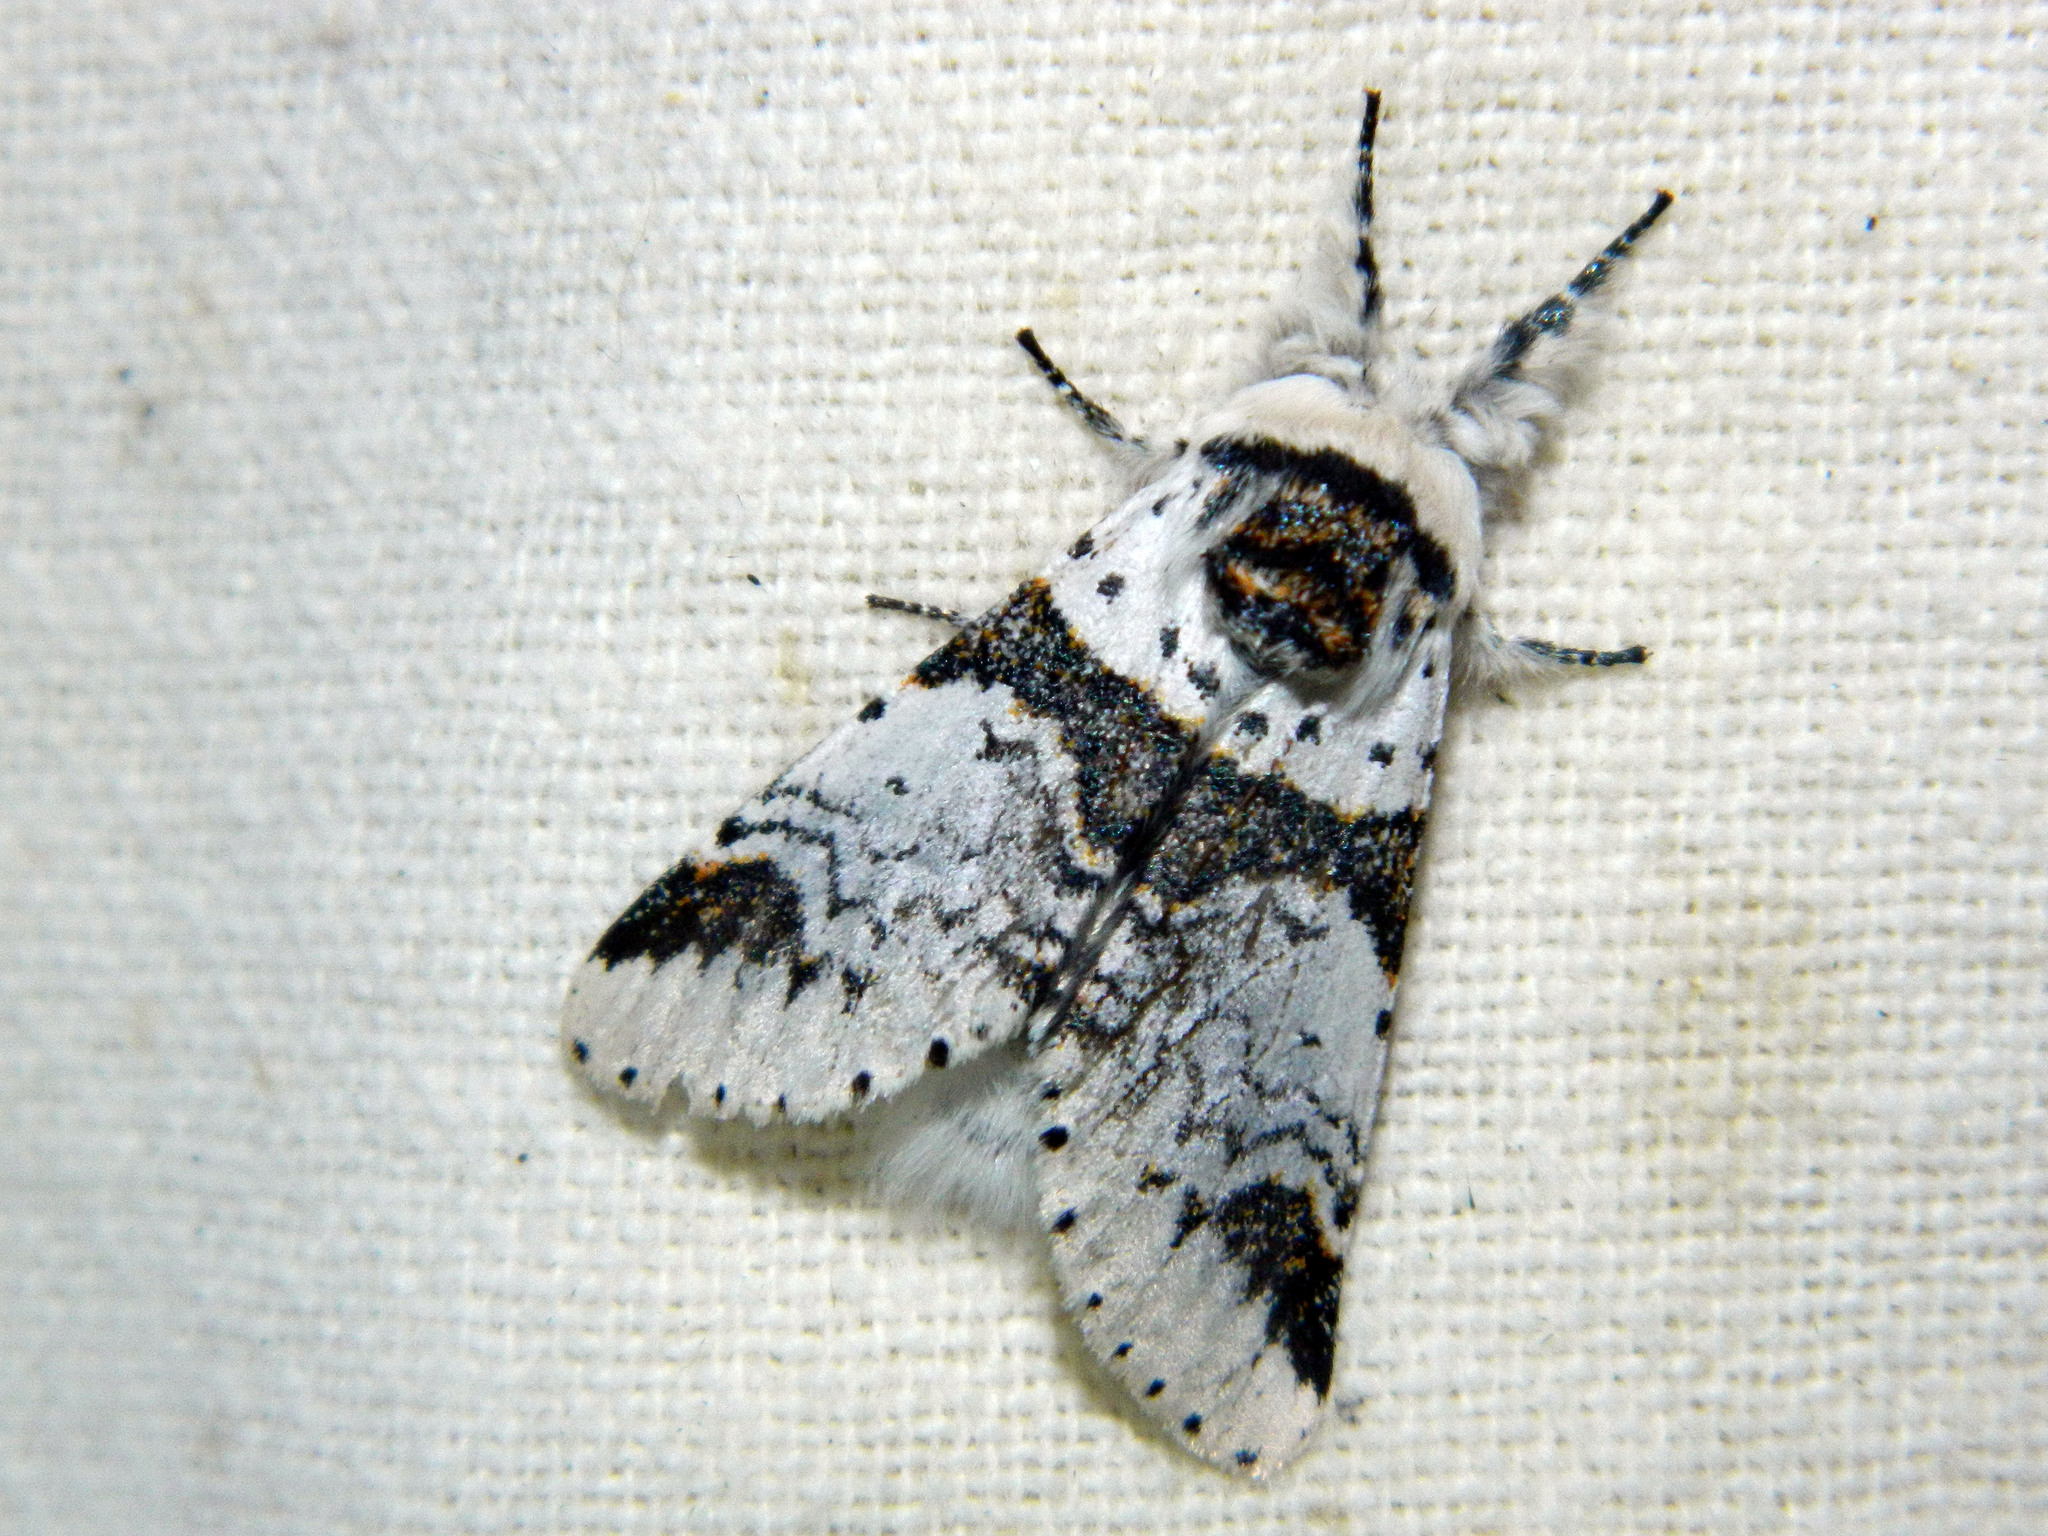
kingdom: Animalia
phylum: Arthropoda
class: Insecta
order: Lepidoptera
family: Notodontidae
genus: Furcula
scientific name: Furcula scolopendrina
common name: Zigzag furcula moth
